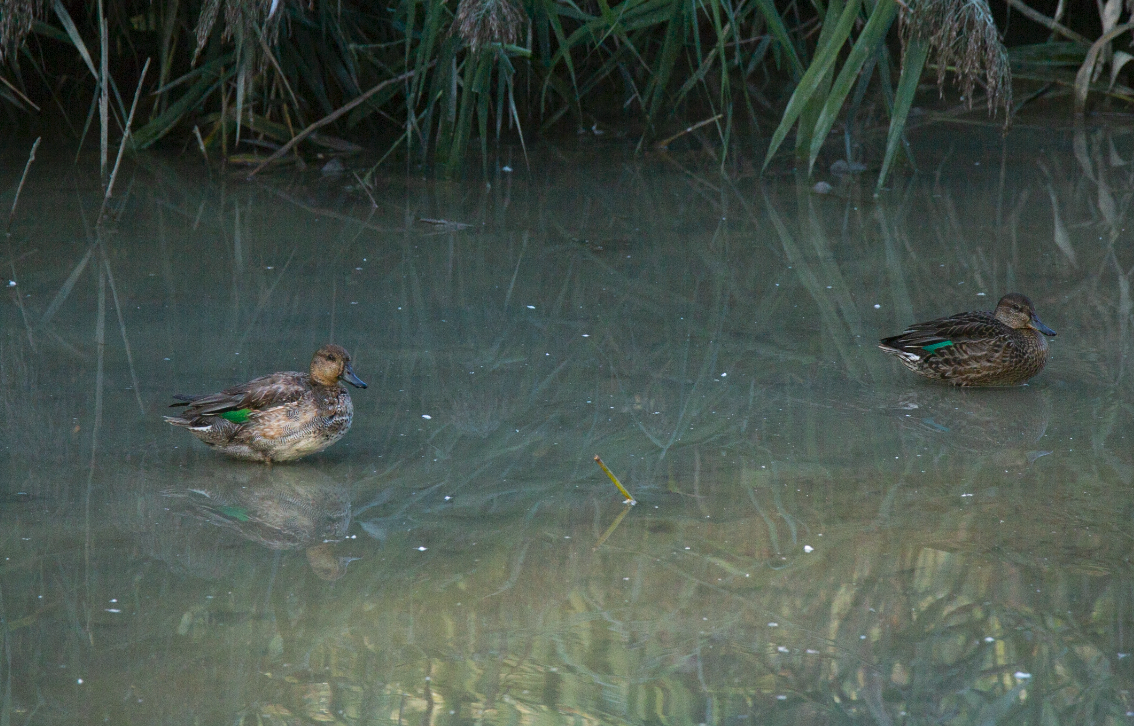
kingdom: Animalia
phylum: Chordata
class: Aves
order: Anseriformes
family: Anatidae
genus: Anas
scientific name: Anas crecca
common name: Eurasian teal
